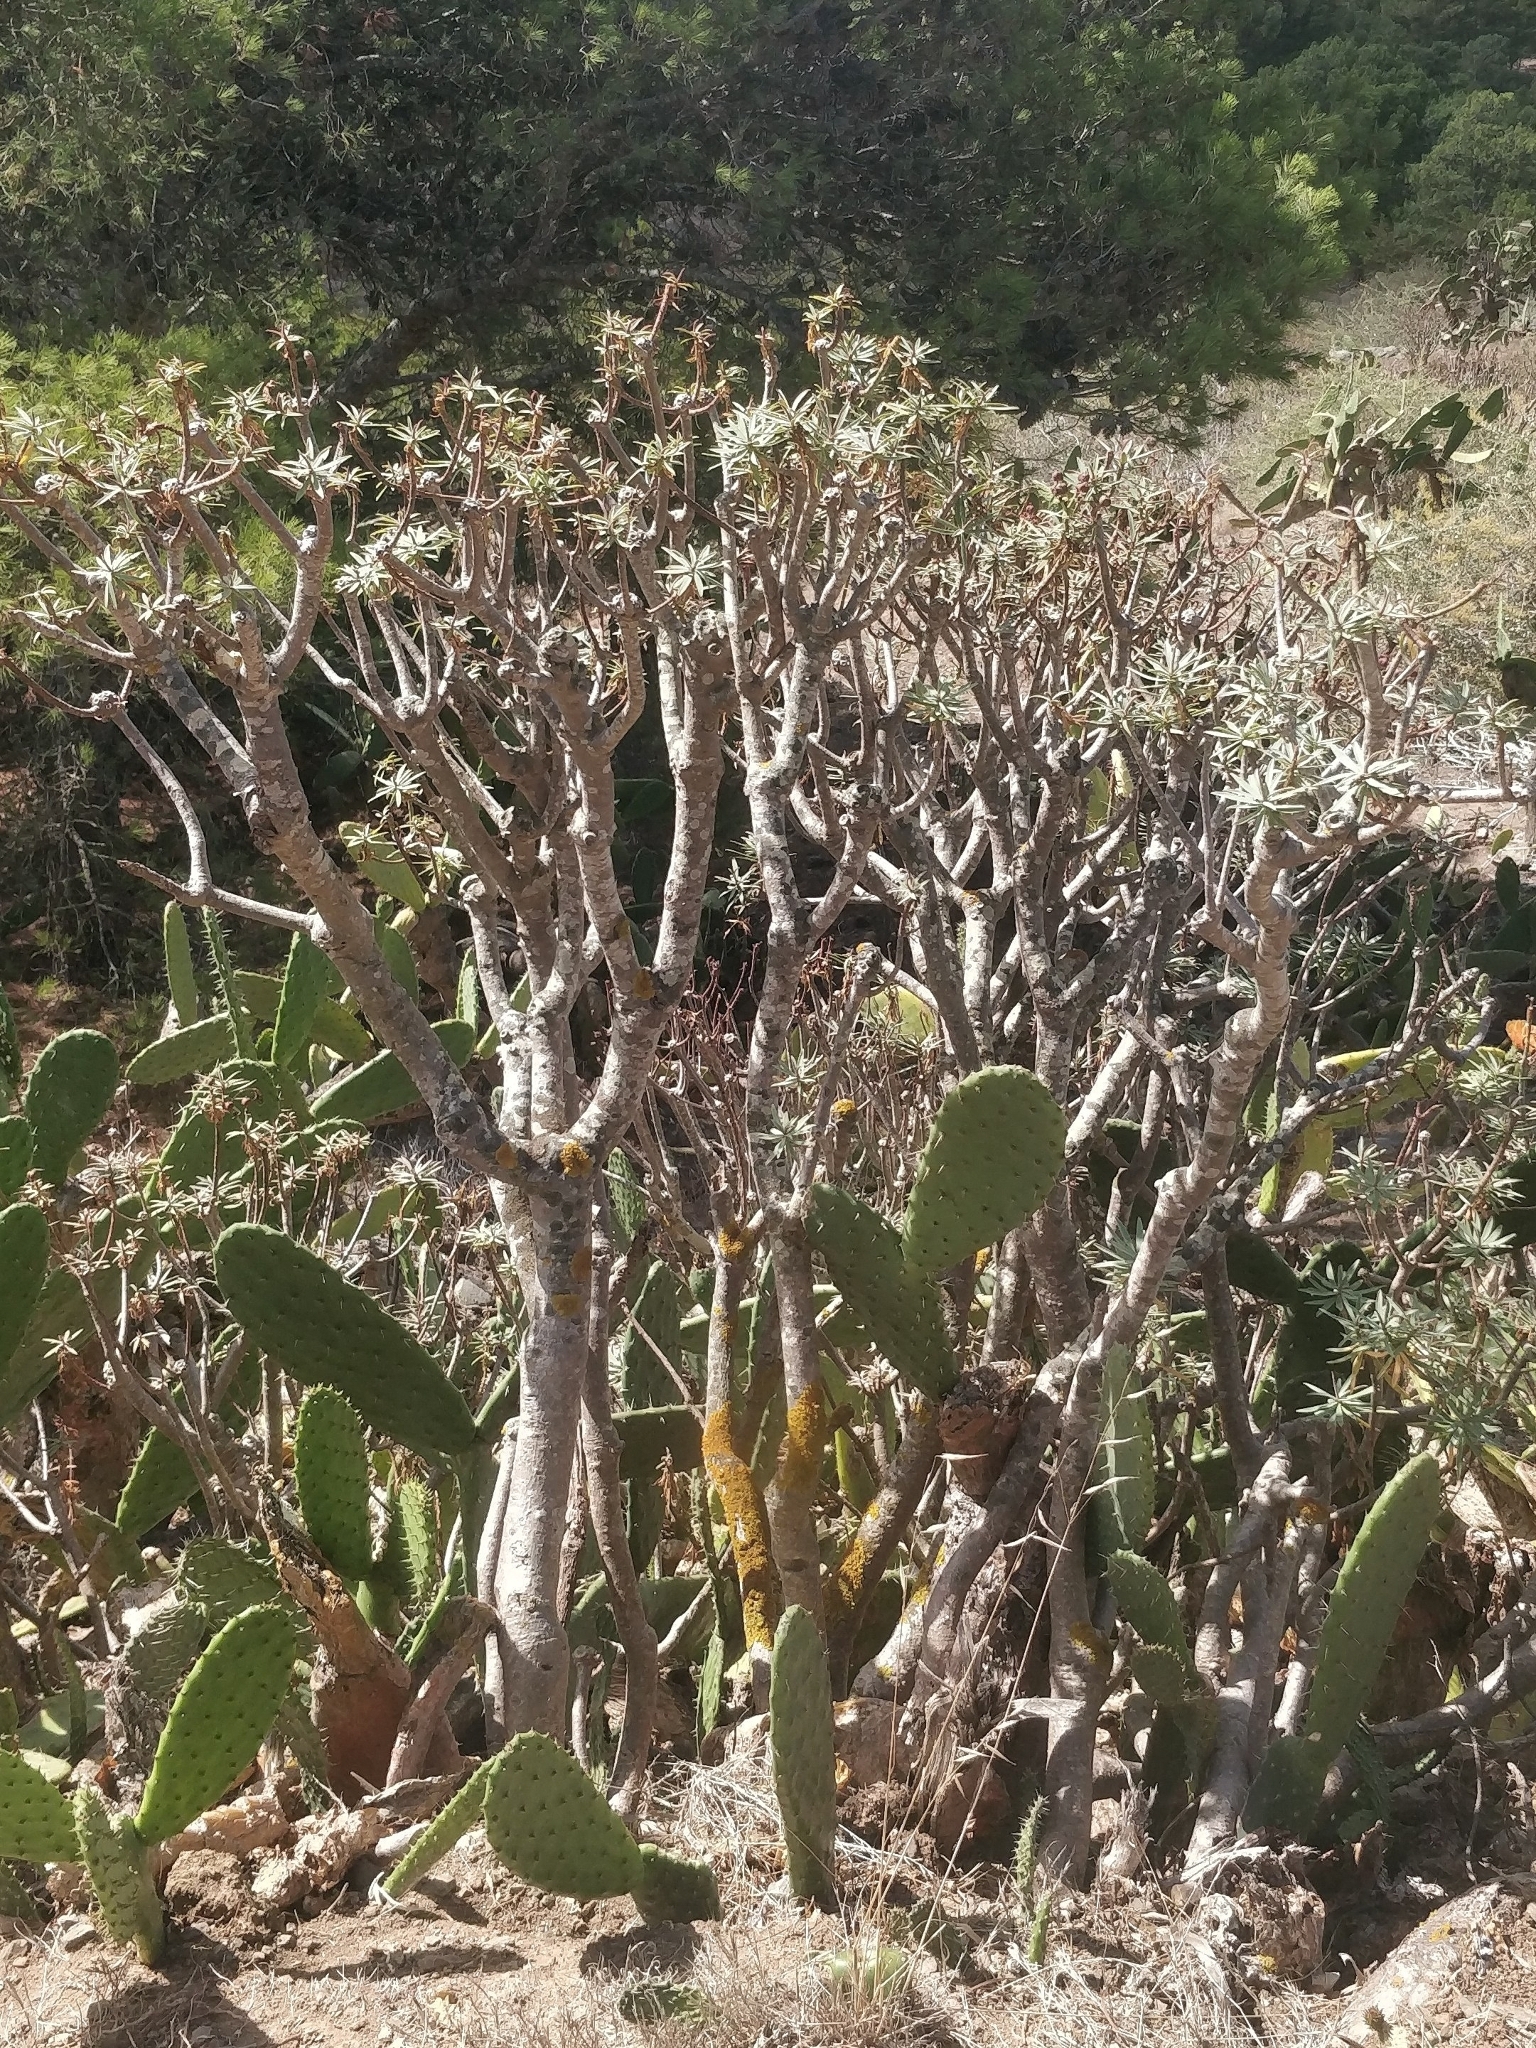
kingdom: Plantae
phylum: Tracheophyta
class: Magnoliopsida
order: Malpighiales
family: Euphorbiaceae
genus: Euphorbia
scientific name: Euphorbia piscatoria
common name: Fish-stunning spurge
